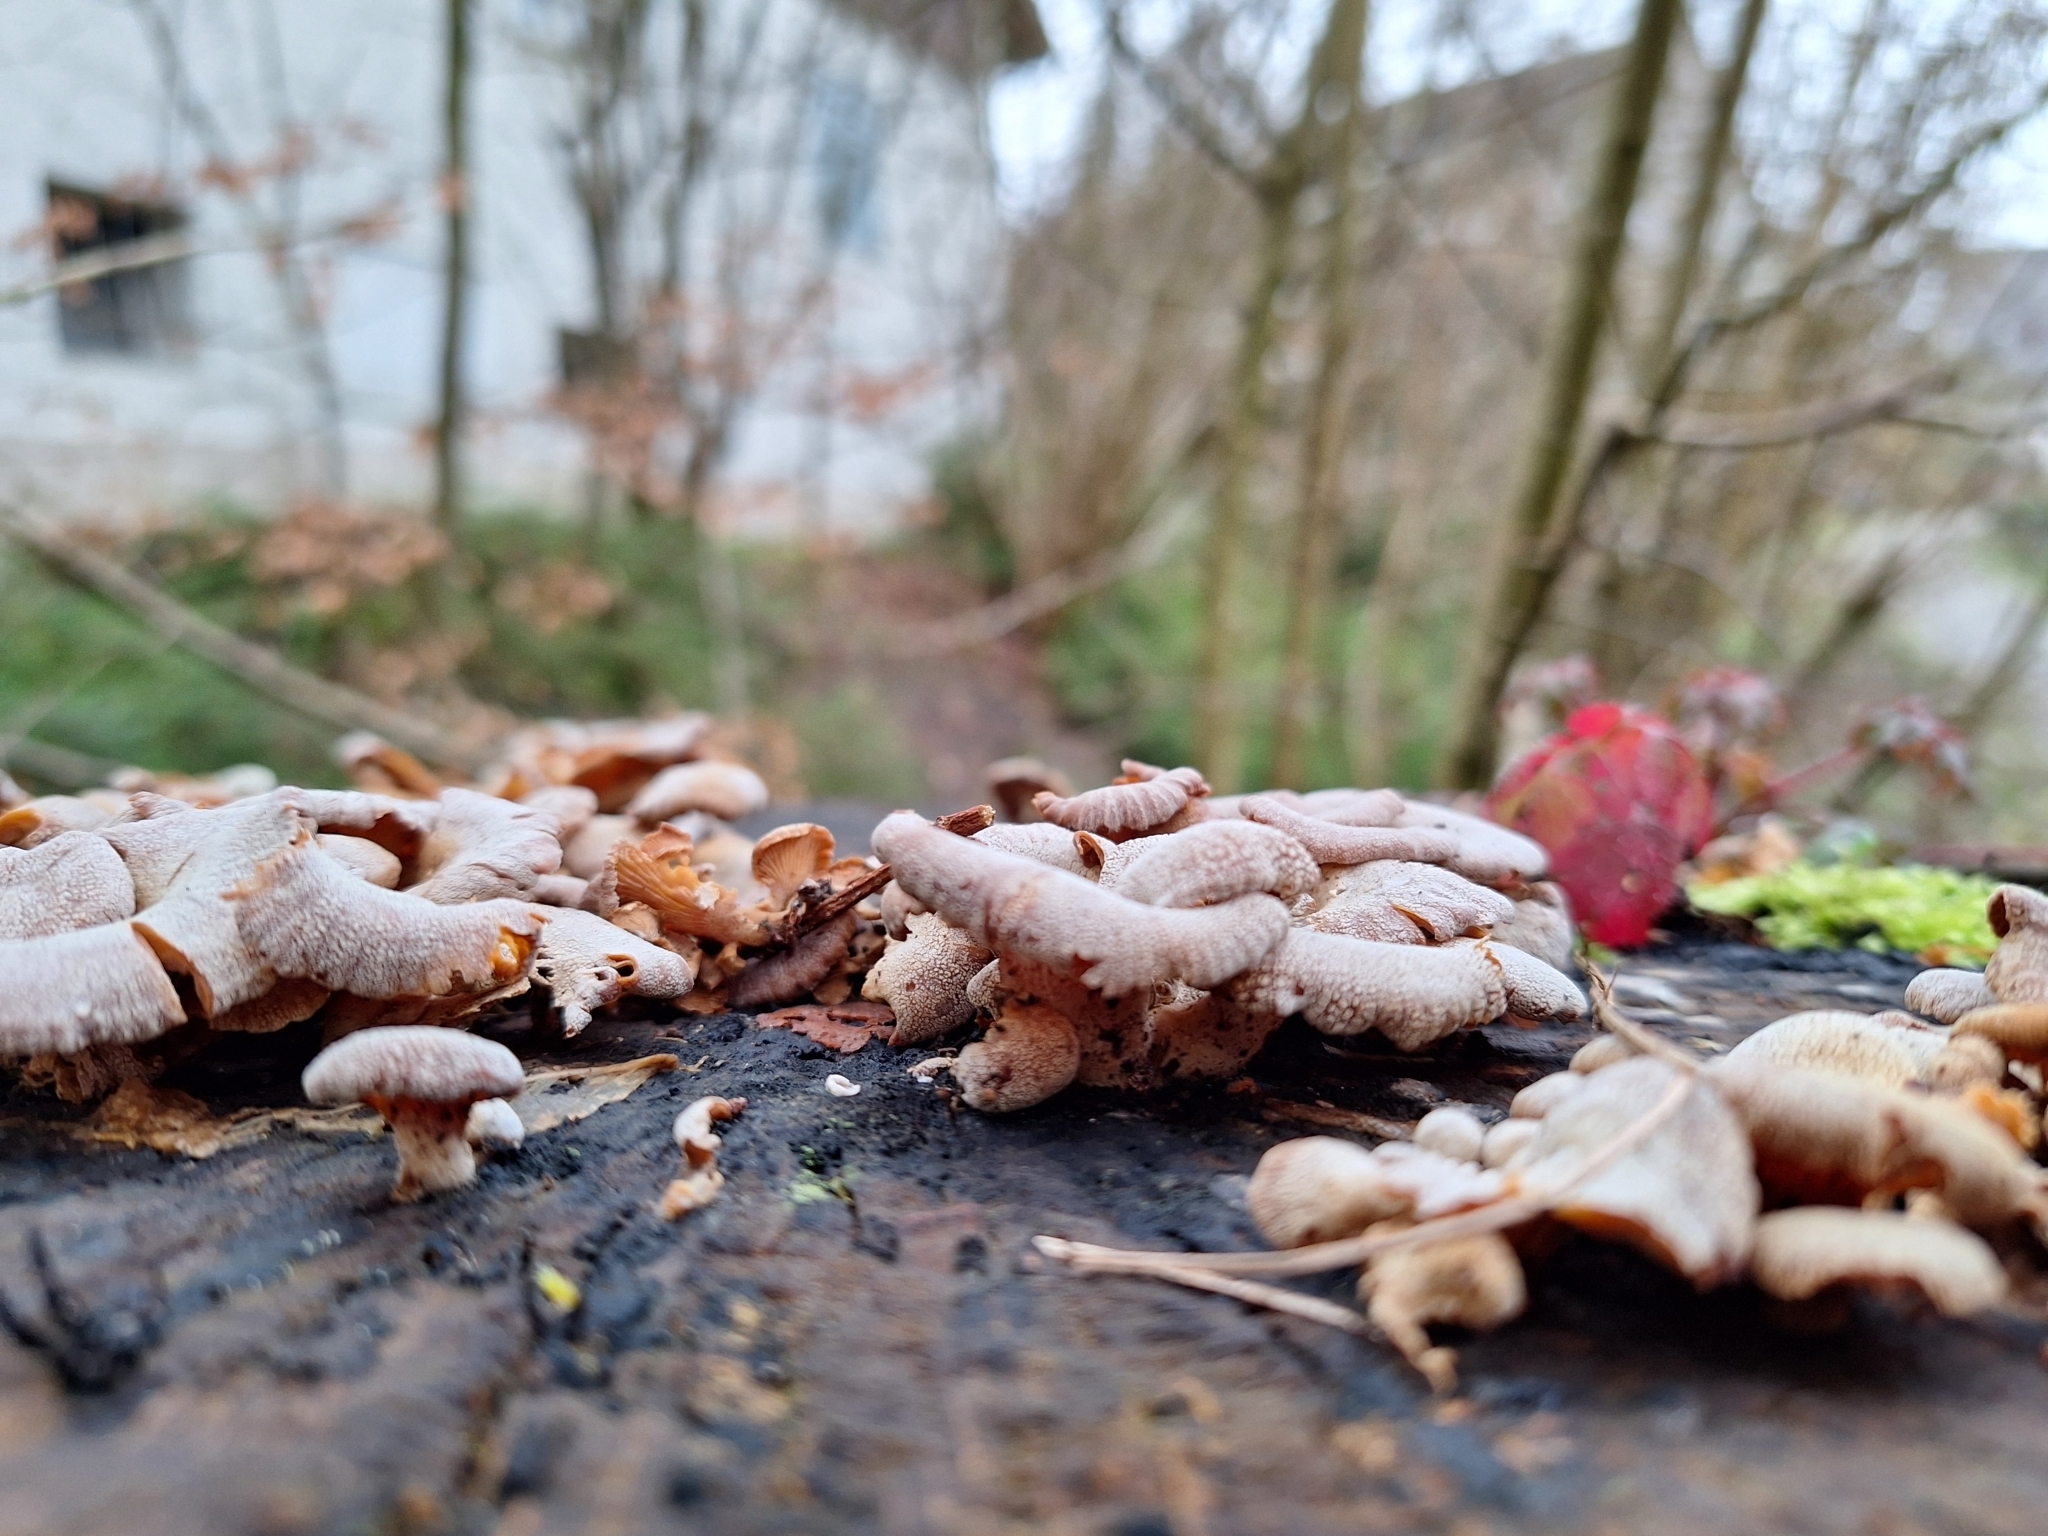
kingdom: Fungi
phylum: Basidiomycota
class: Agaricomycetes
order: Agaricales
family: Mycenaceae
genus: Panellus
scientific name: Panellus stipticus
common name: Bitter oysterling
